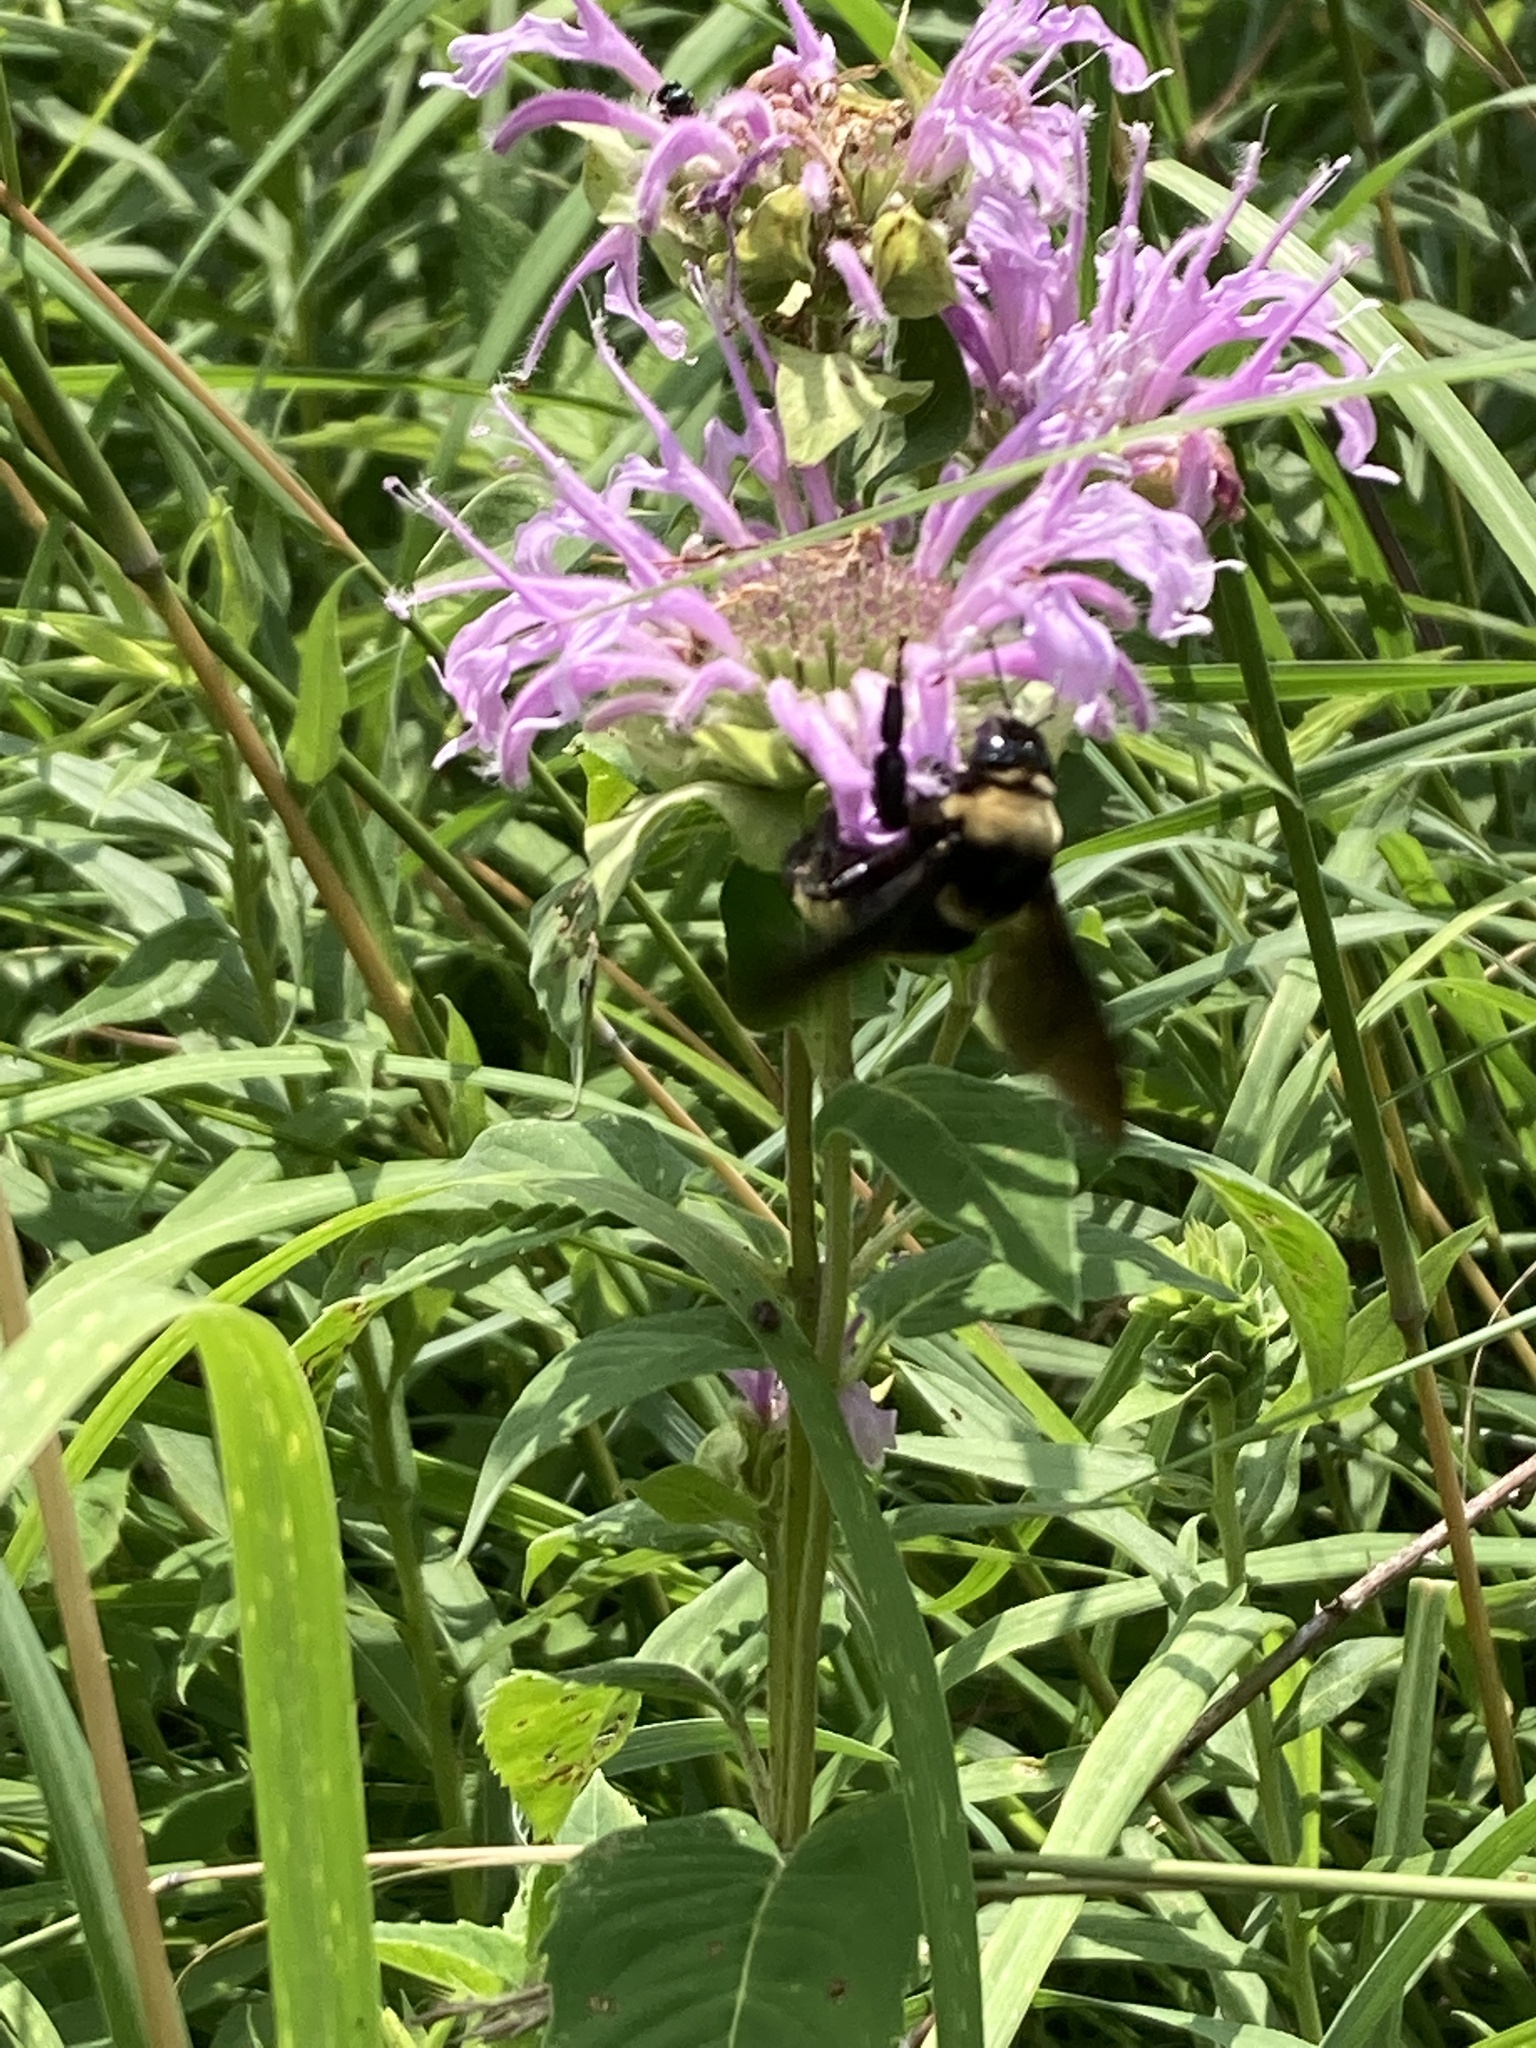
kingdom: Animalia
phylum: Arthropoda
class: Insecta
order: Hymenoptera
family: Apidae
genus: Bombus
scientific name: Bombus auricomus
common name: Black and gold bumble bee
